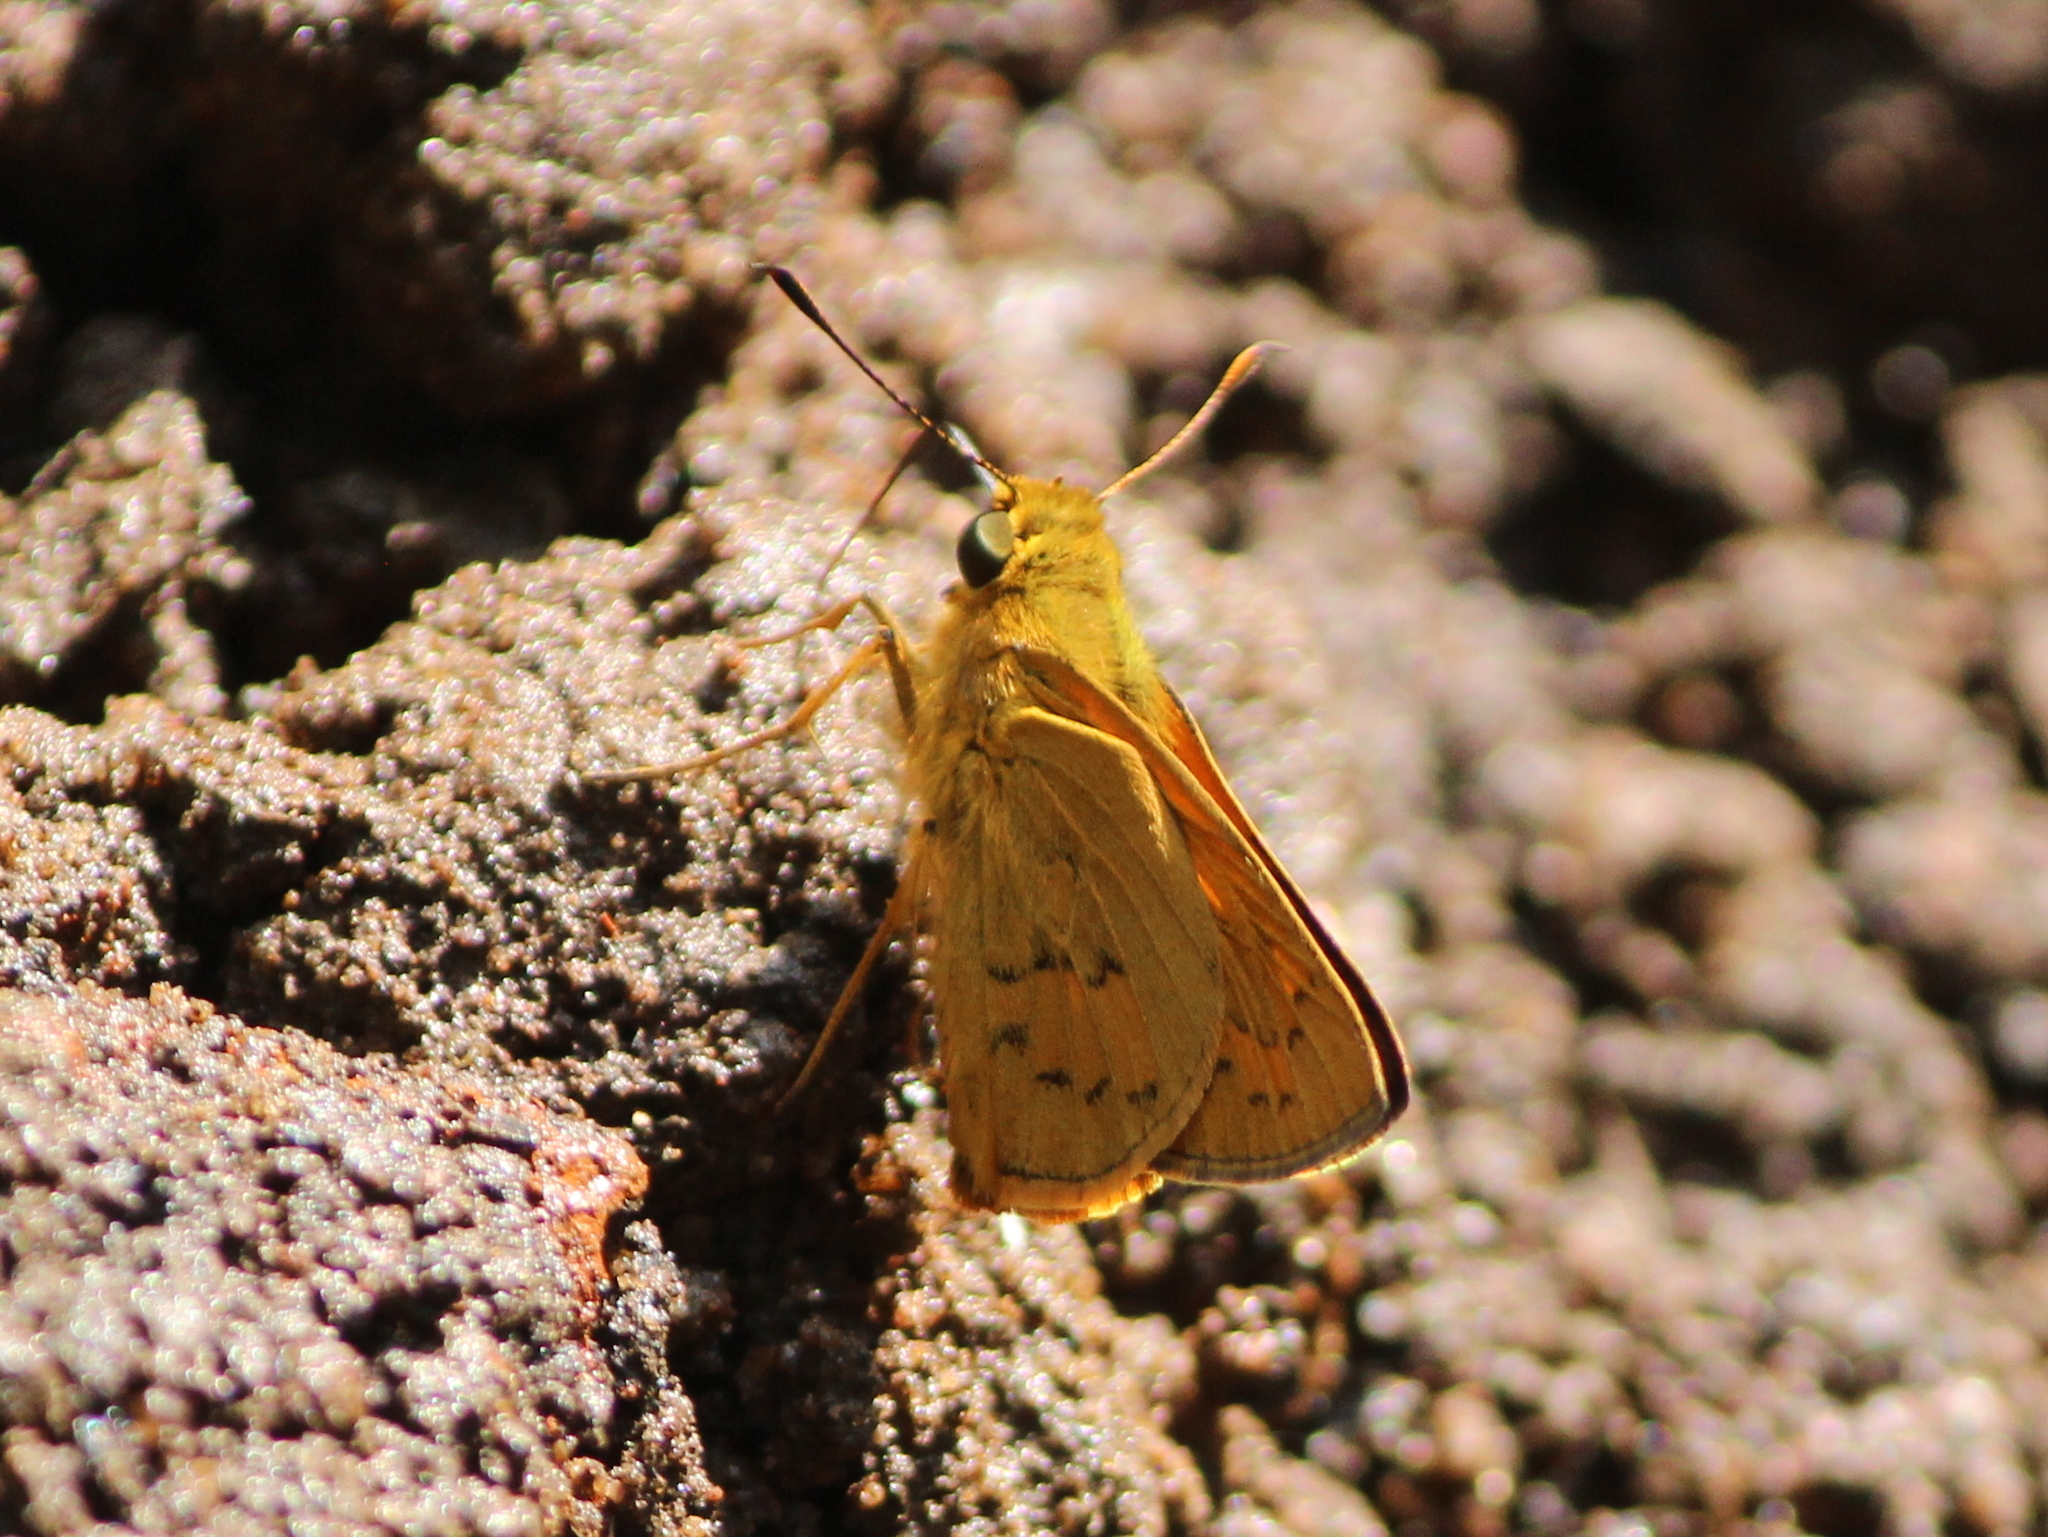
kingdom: Animalia
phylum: Arthropoda
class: Insecta
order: Lepidoptera
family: Hesperiidae
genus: Telicota
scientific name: Telicota bambusae
